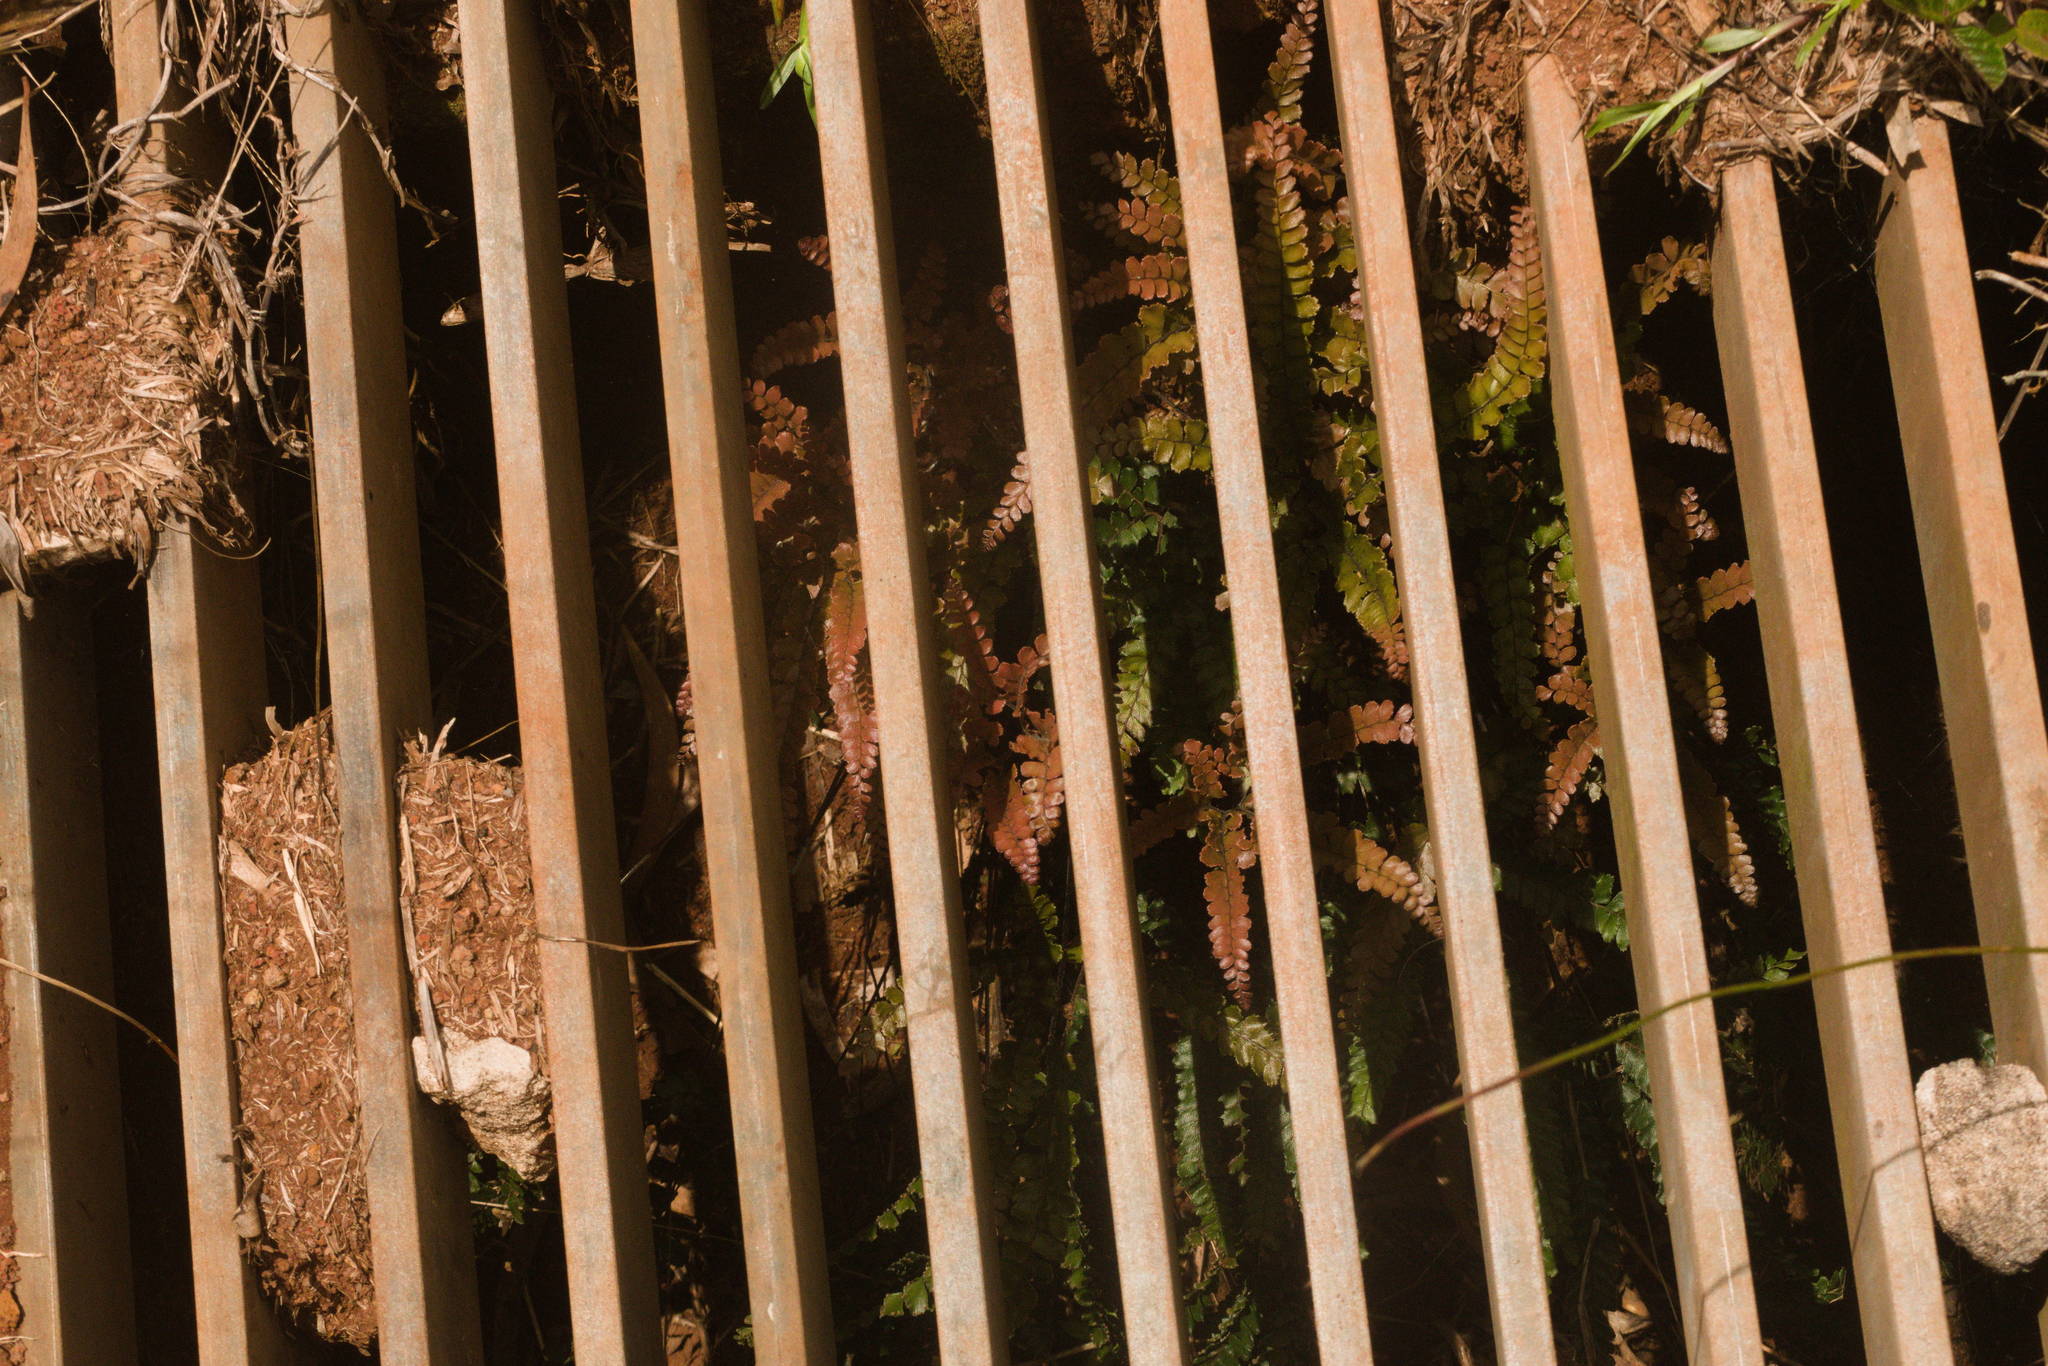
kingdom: Plantae
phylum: Tracheophyta
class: Polypodiopsida
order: Polypodiales
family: Pteridaceae
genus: Adiantum
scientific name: Adiantum hispidulum
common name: Rough maidenhair
